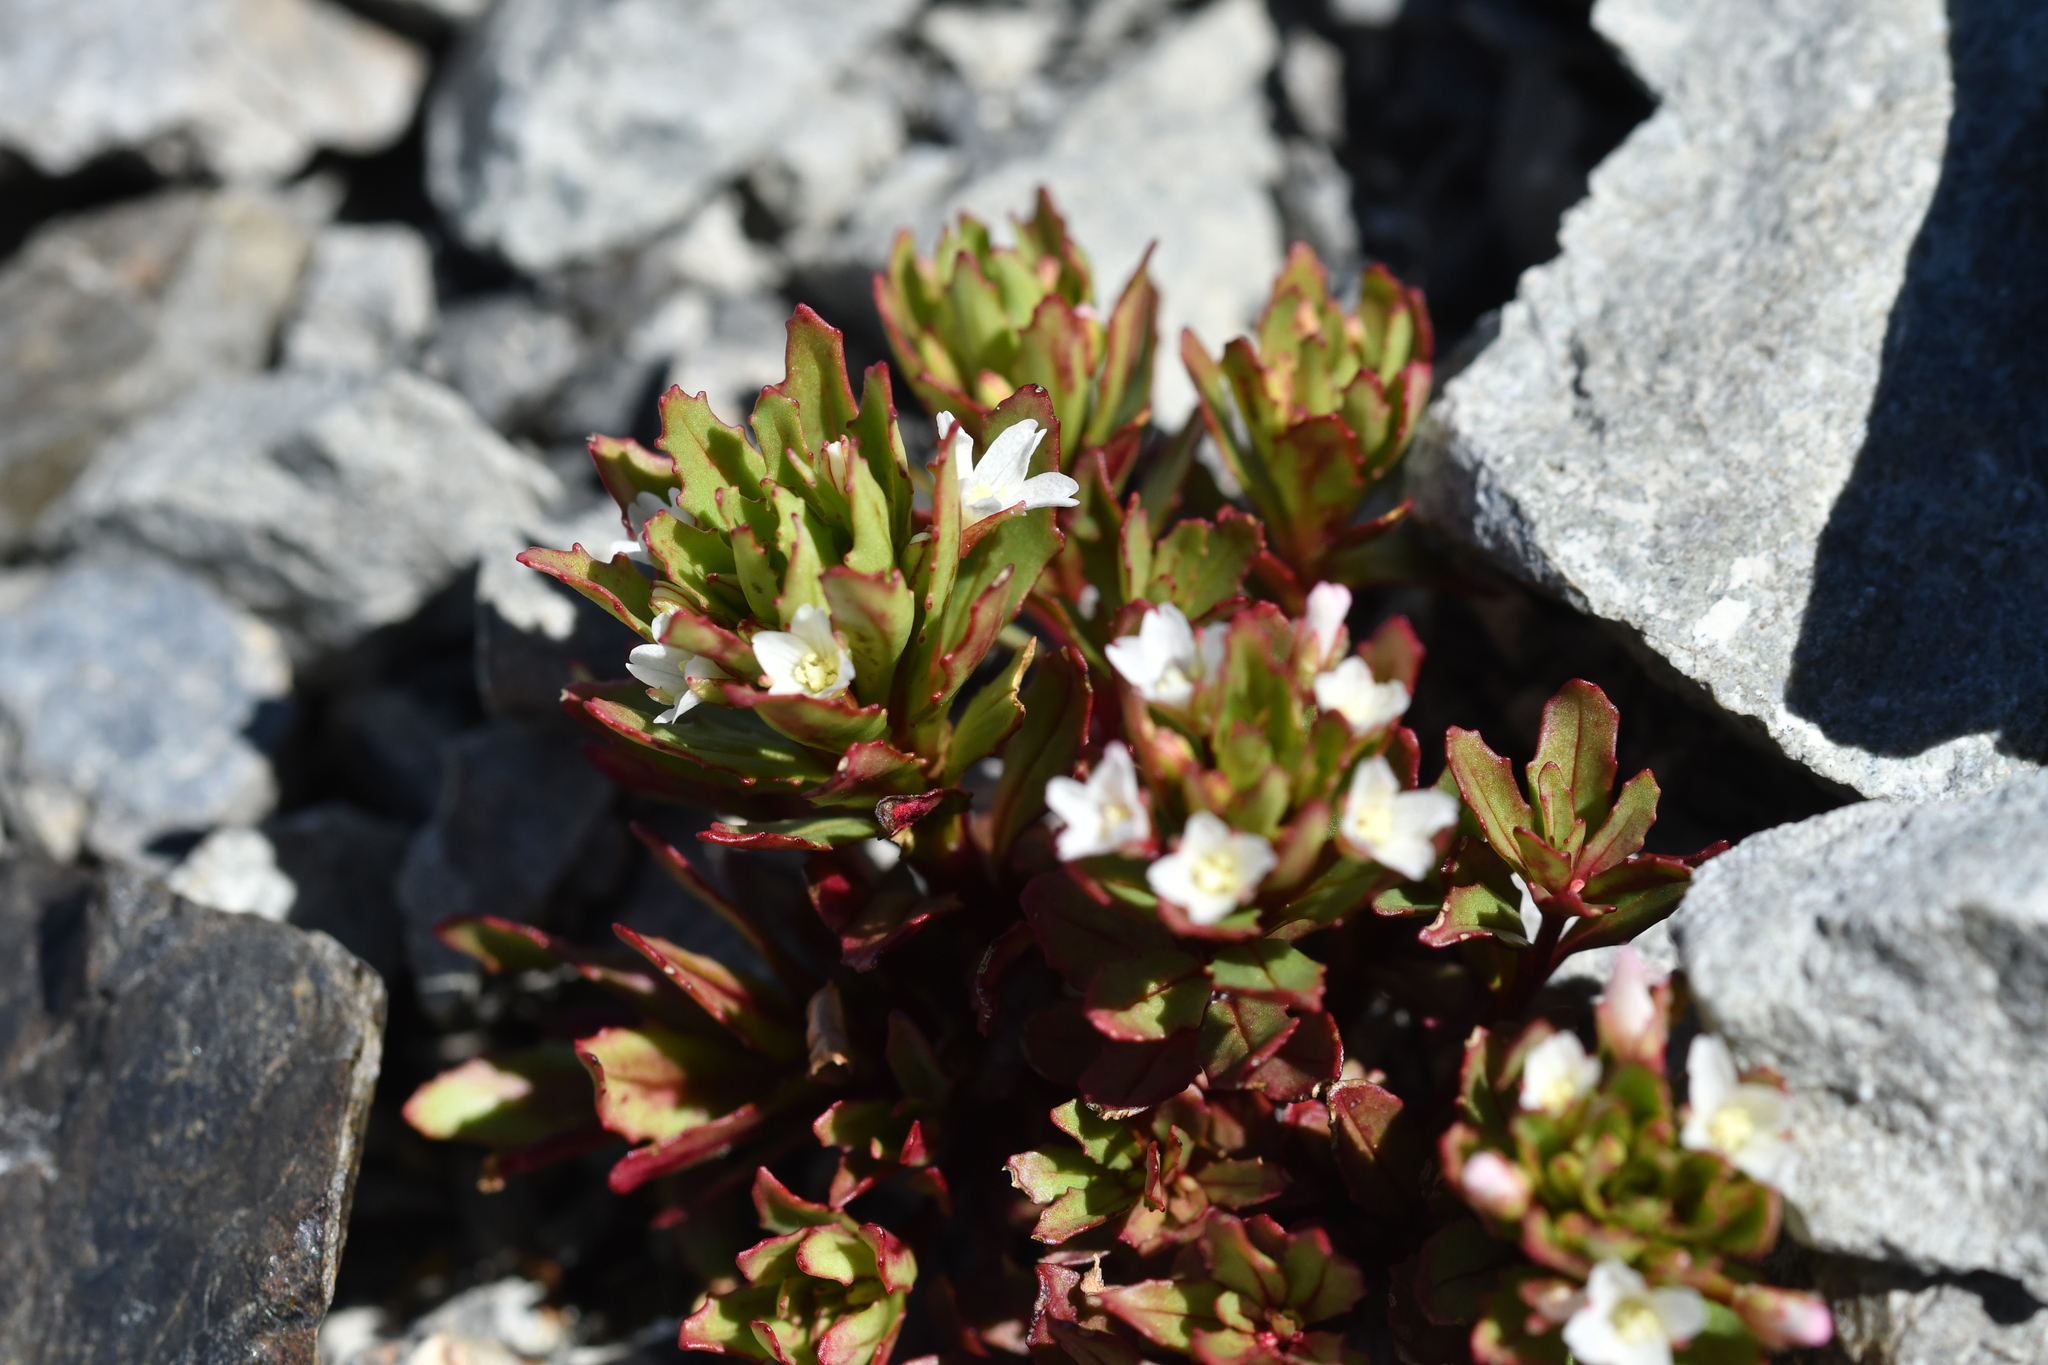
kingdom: Plantae
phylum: Tracheophyta
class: Magnoliopsida
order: Myrtales
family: Onagraceae
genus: Epilobium
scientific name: Epilobium pycnostachyum
